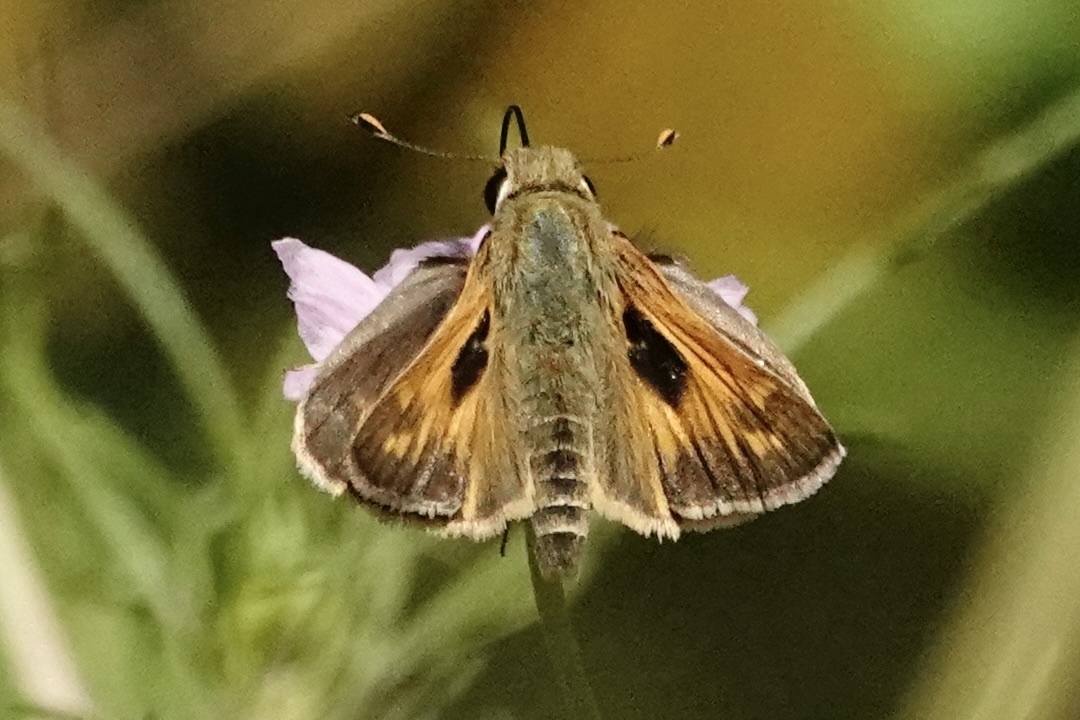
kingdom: Animalia
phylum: Arthropoda
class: Insecta
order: Lepidoptera
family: Hesperiidae
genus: Atalopedes
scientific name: Atalopedes
